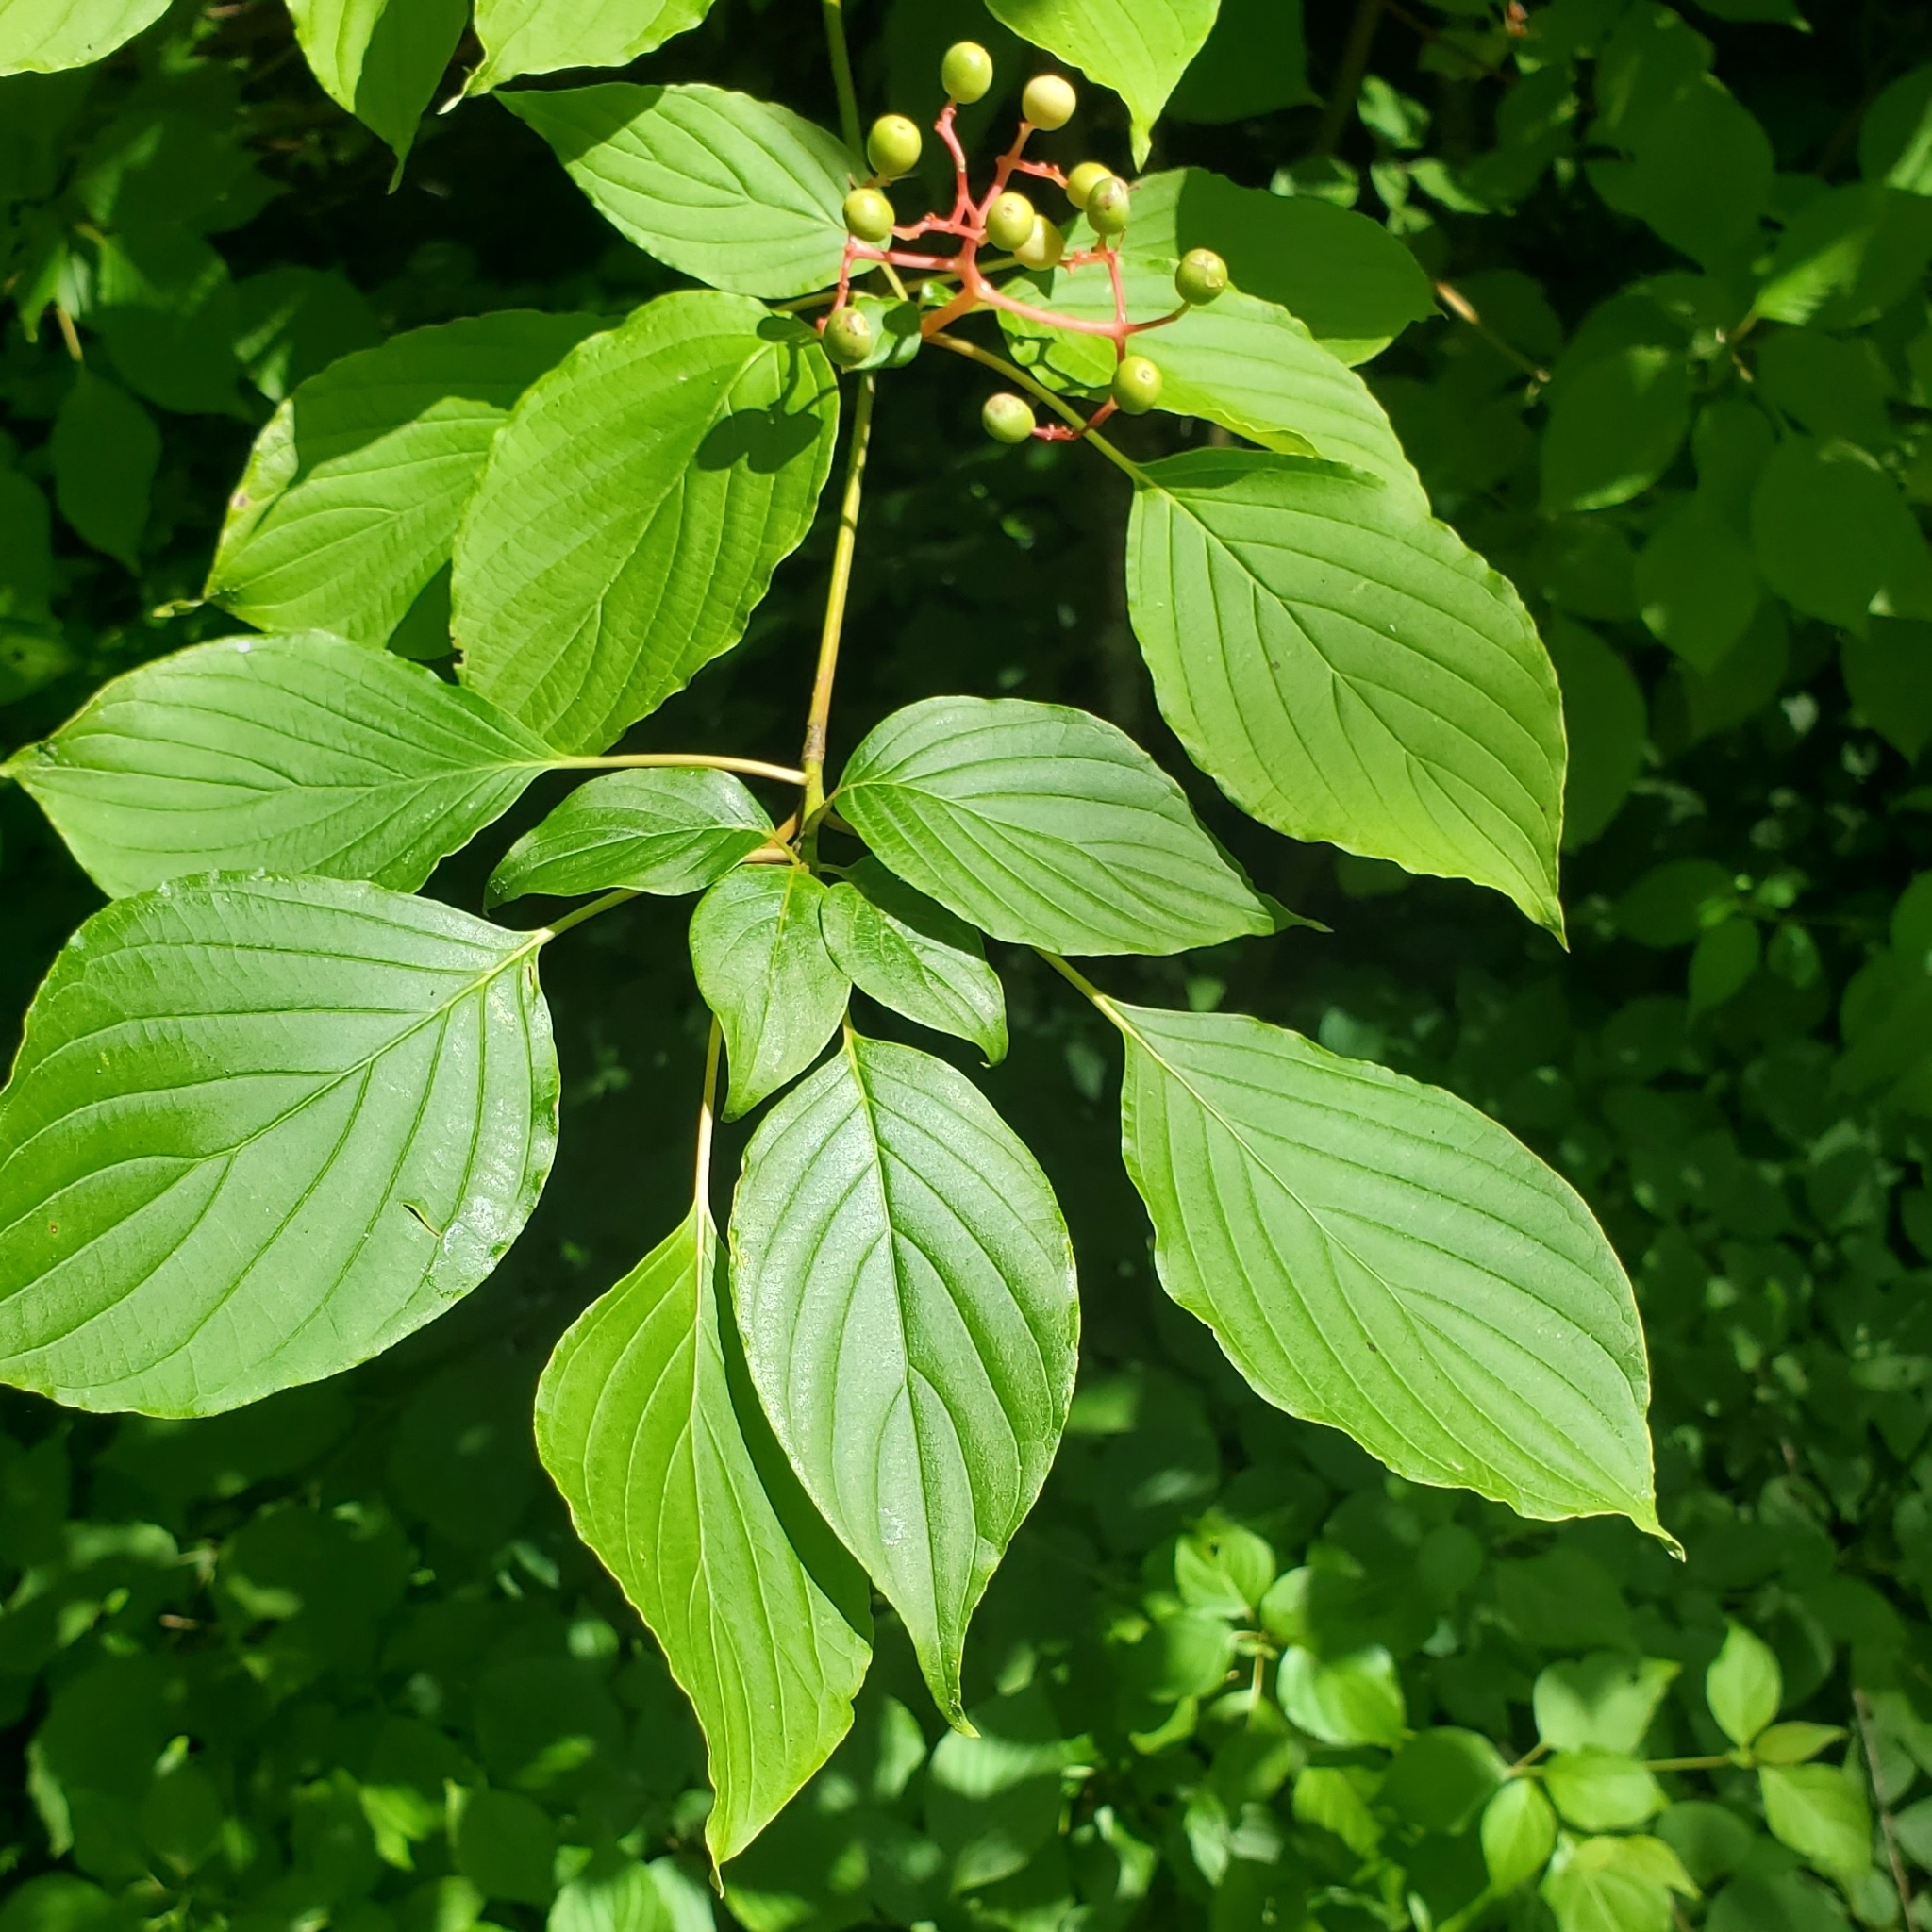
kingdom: Plantae
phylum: Tracheophyta
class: Magnoliopsida
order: Cornales
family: Cornaceae
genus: Cornus
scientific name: Cornus alternifolia
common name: Pagoda dogwood
